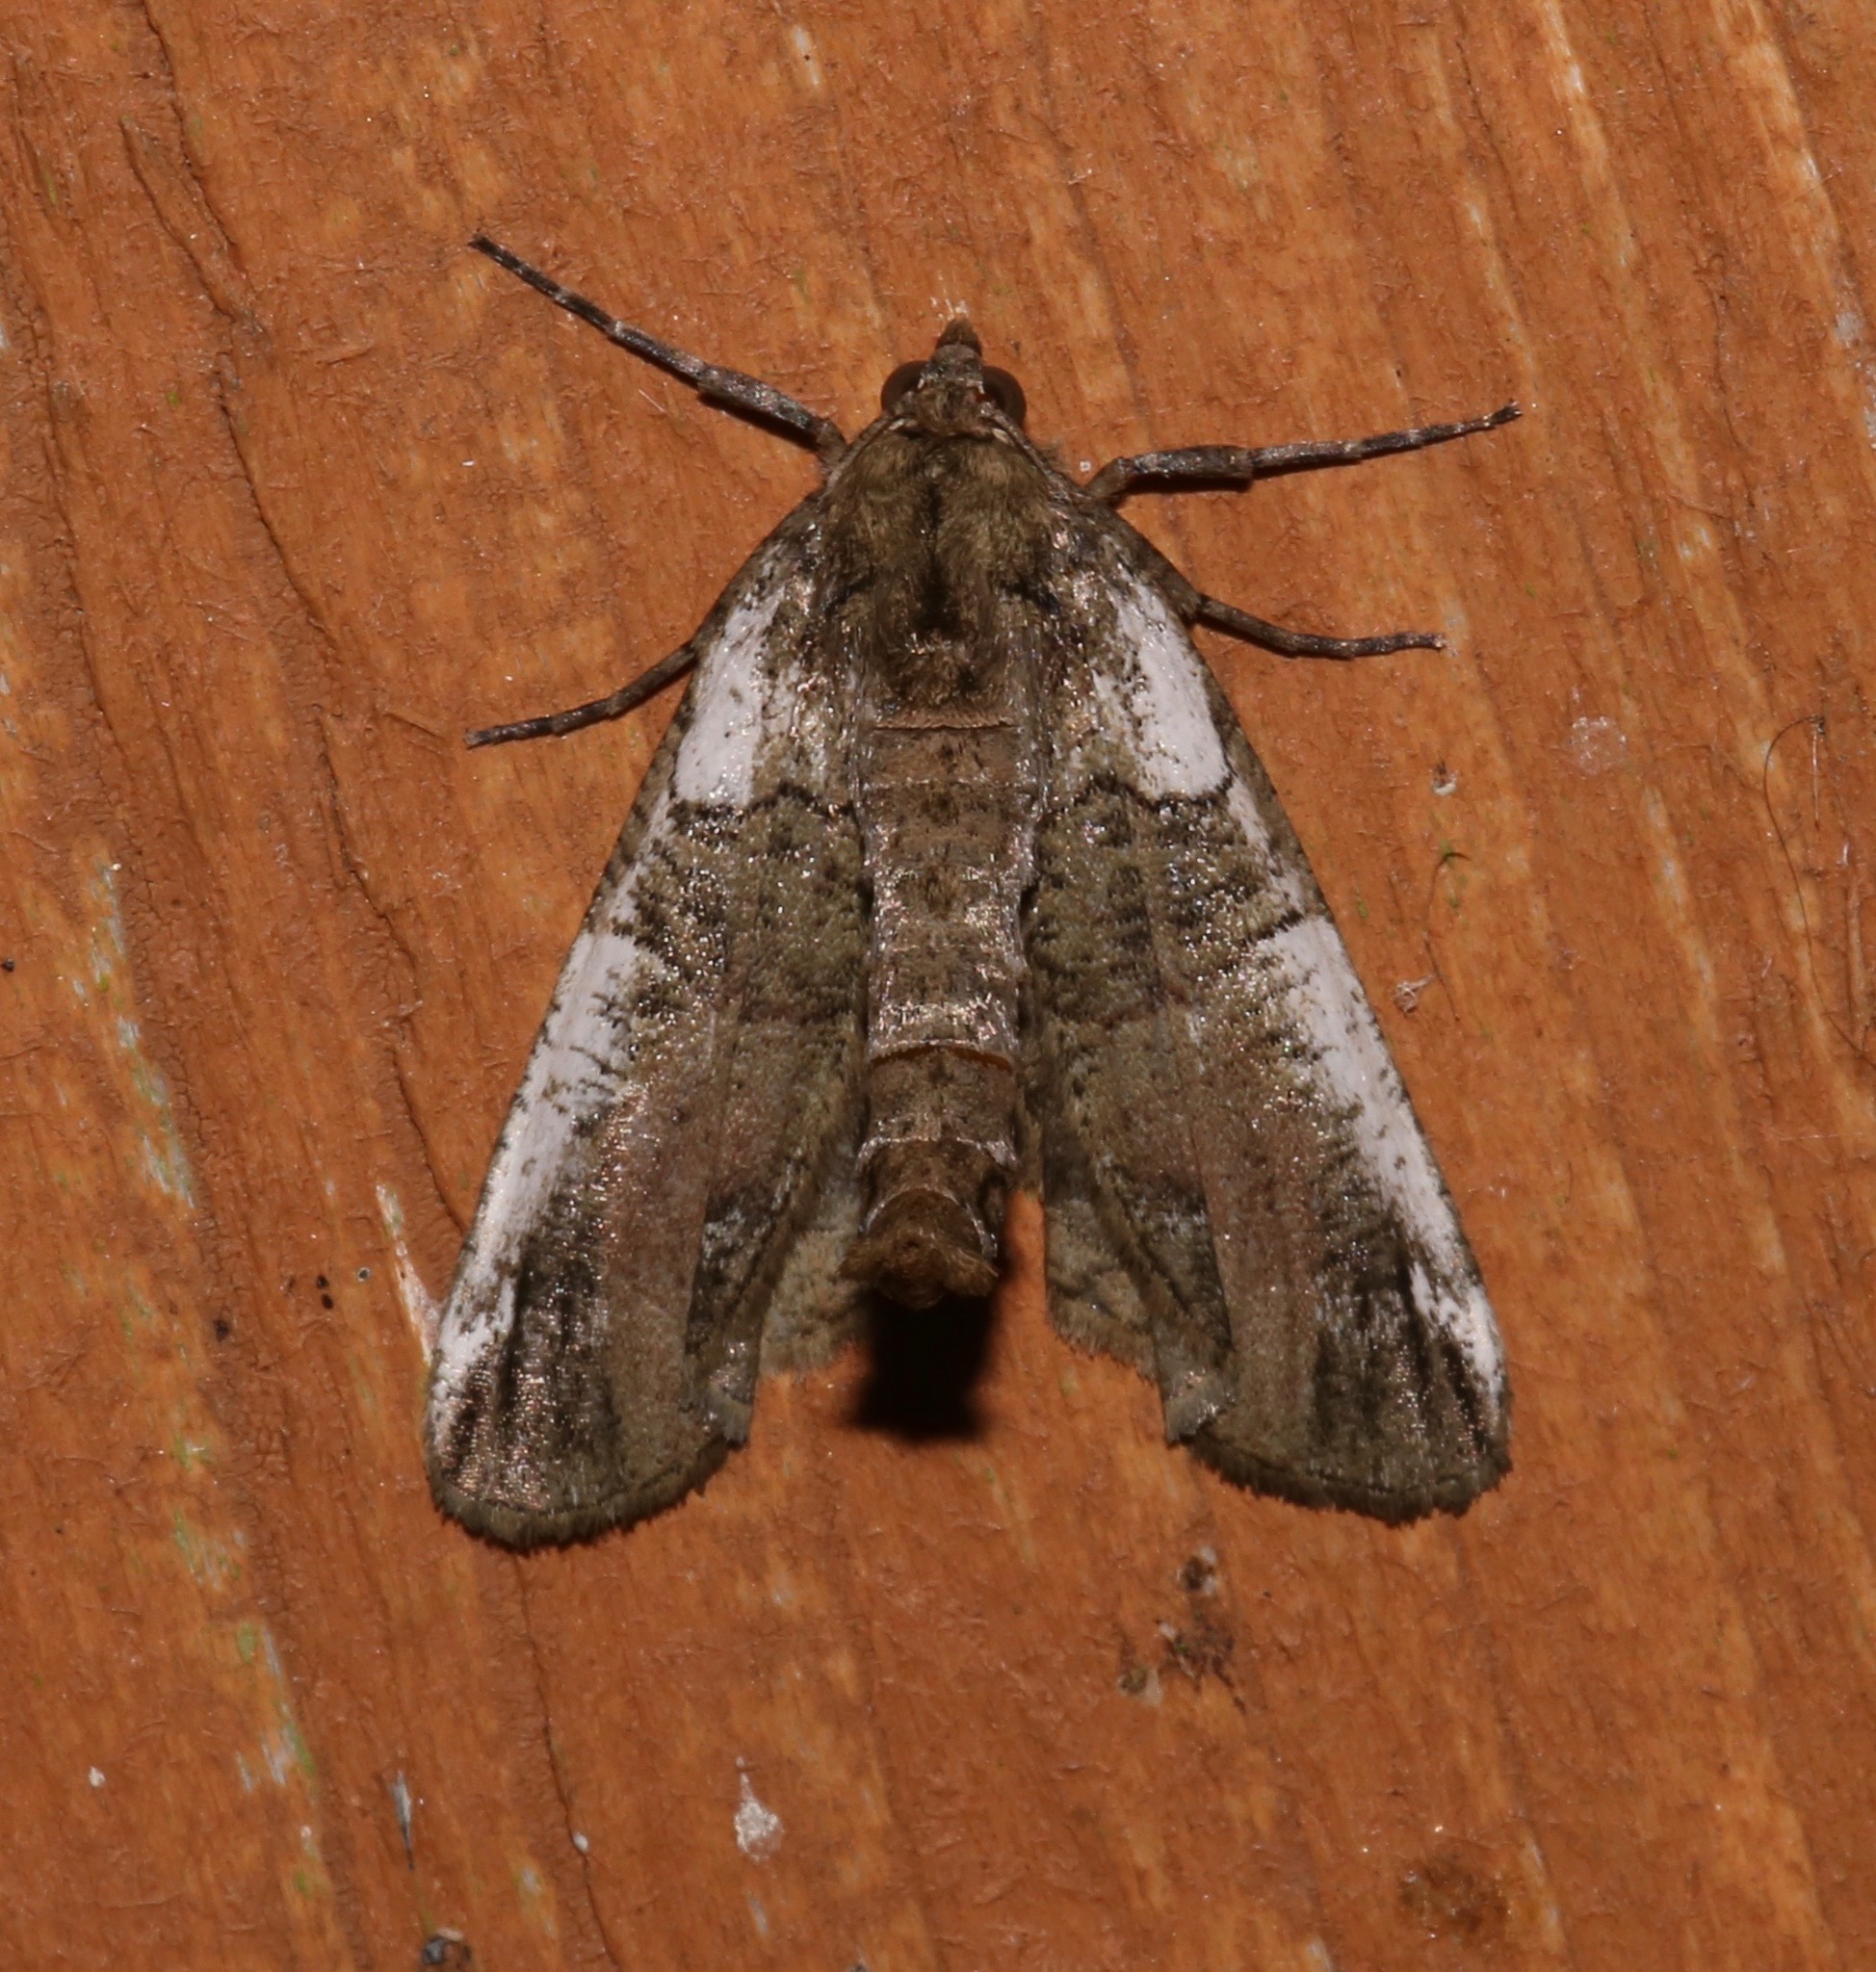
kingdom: Animalia
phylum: Arthropoda
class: Insecta
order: Lepidoptera
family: Geometridae
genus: Ceratonyx
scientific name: Ceratonyx satanaria
